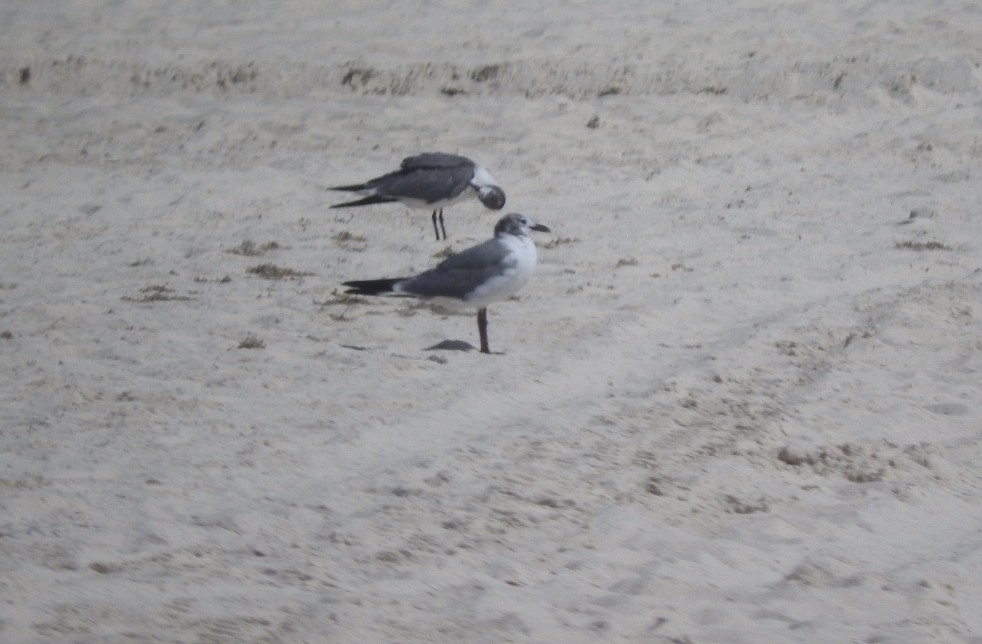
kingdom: Animalia
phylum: Chordata
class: Aves
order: Charadriiformes
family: Laridae
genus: Leucophaeus
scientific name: Leucophaeus atricilla
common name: Laughing gull
